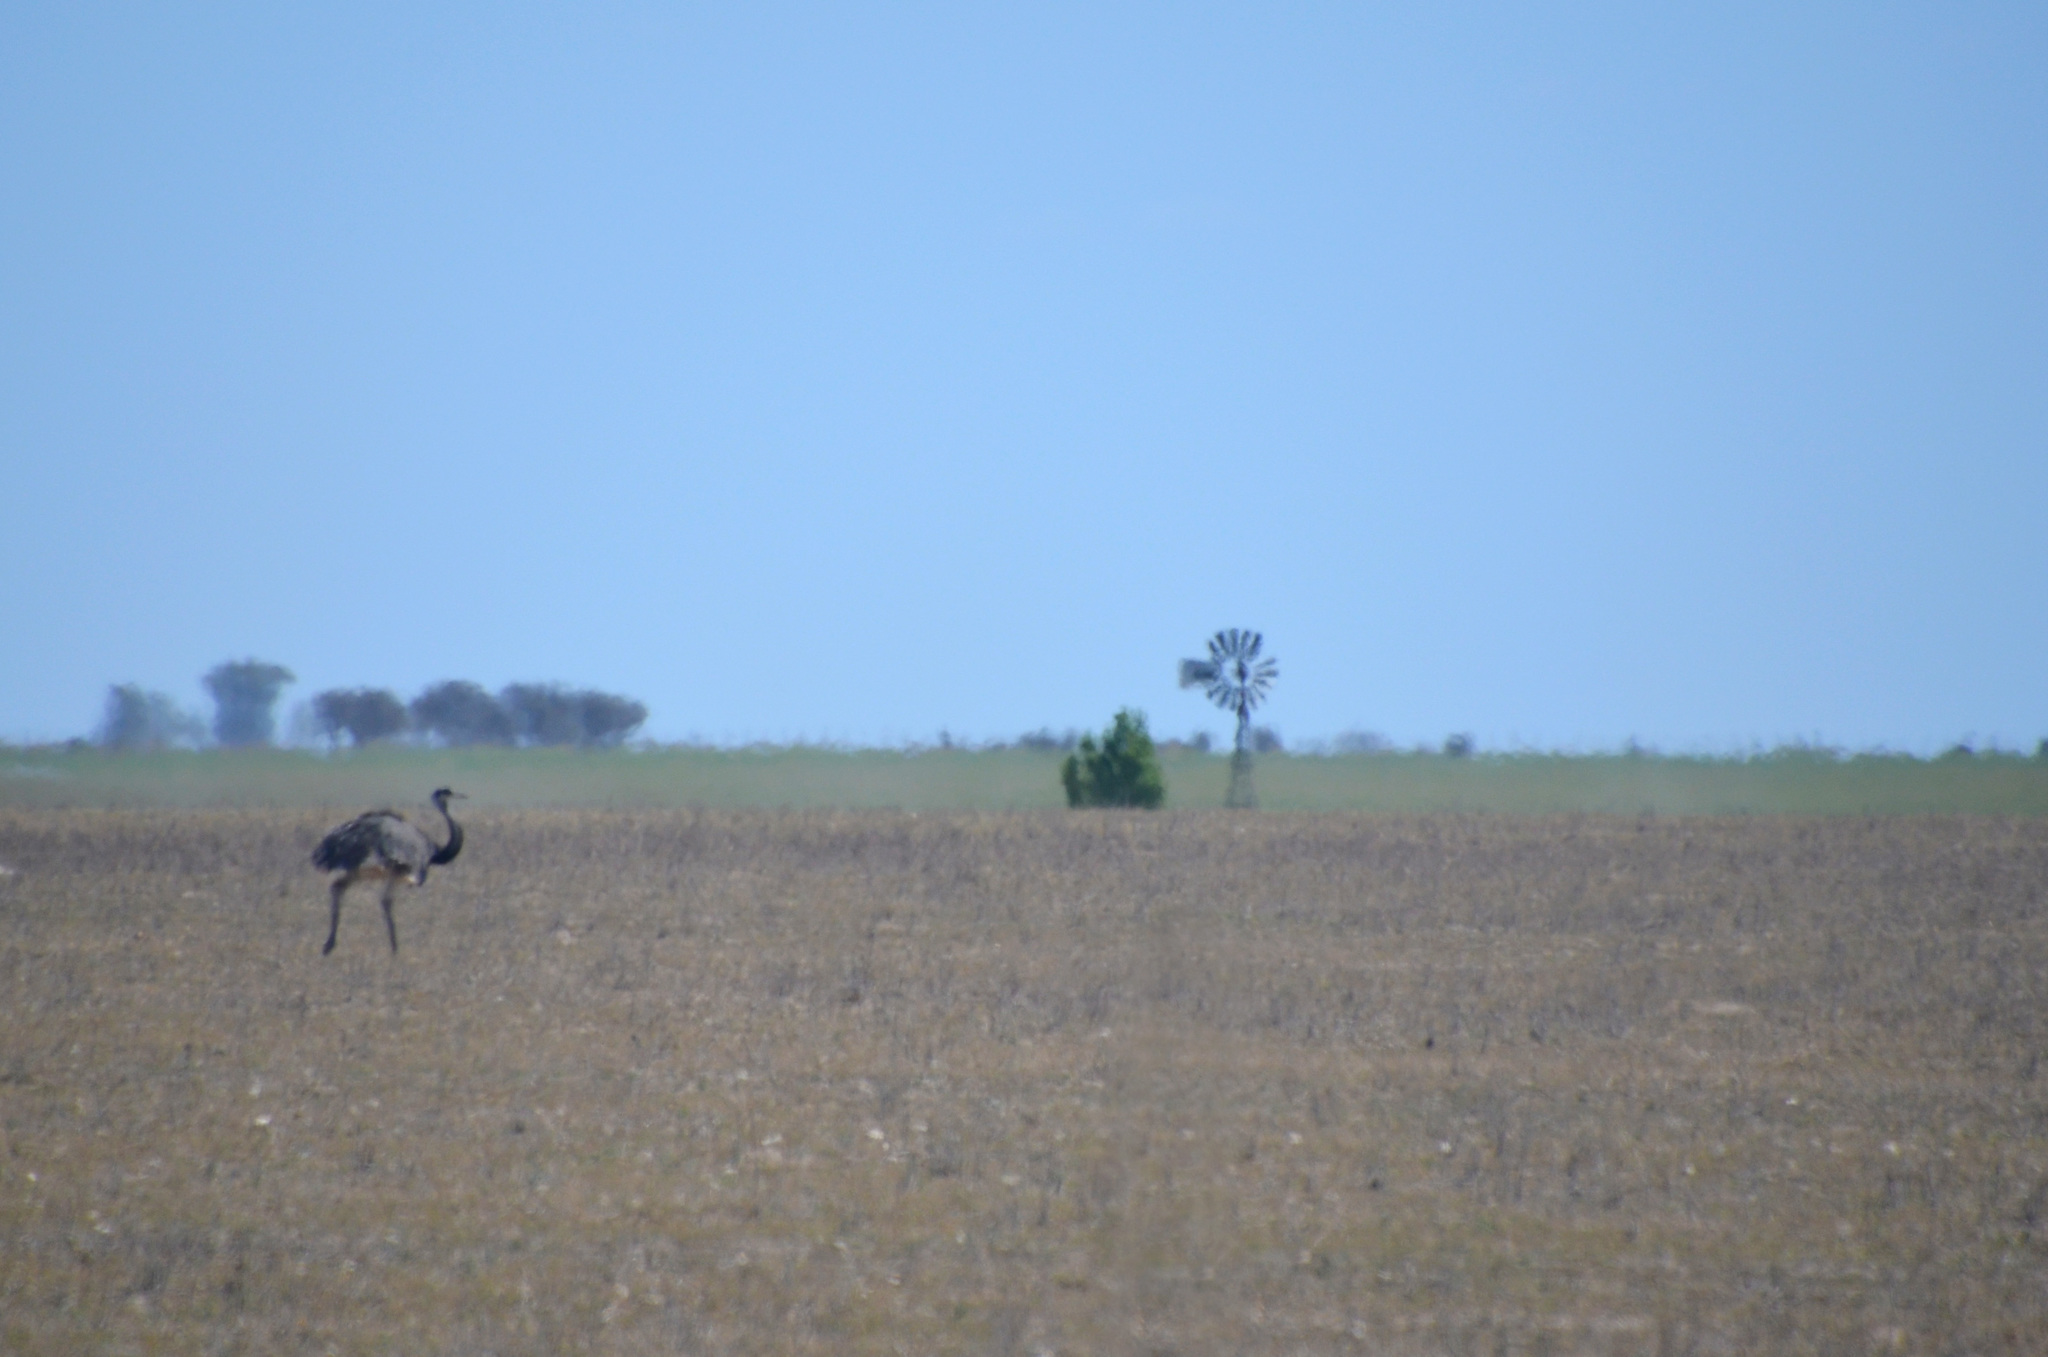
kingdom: Animalia
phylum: Chordata
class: Aves
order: Rheiformes
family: Rheidae
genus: Rhea
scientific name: Rhea americana
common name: Greater rhea
